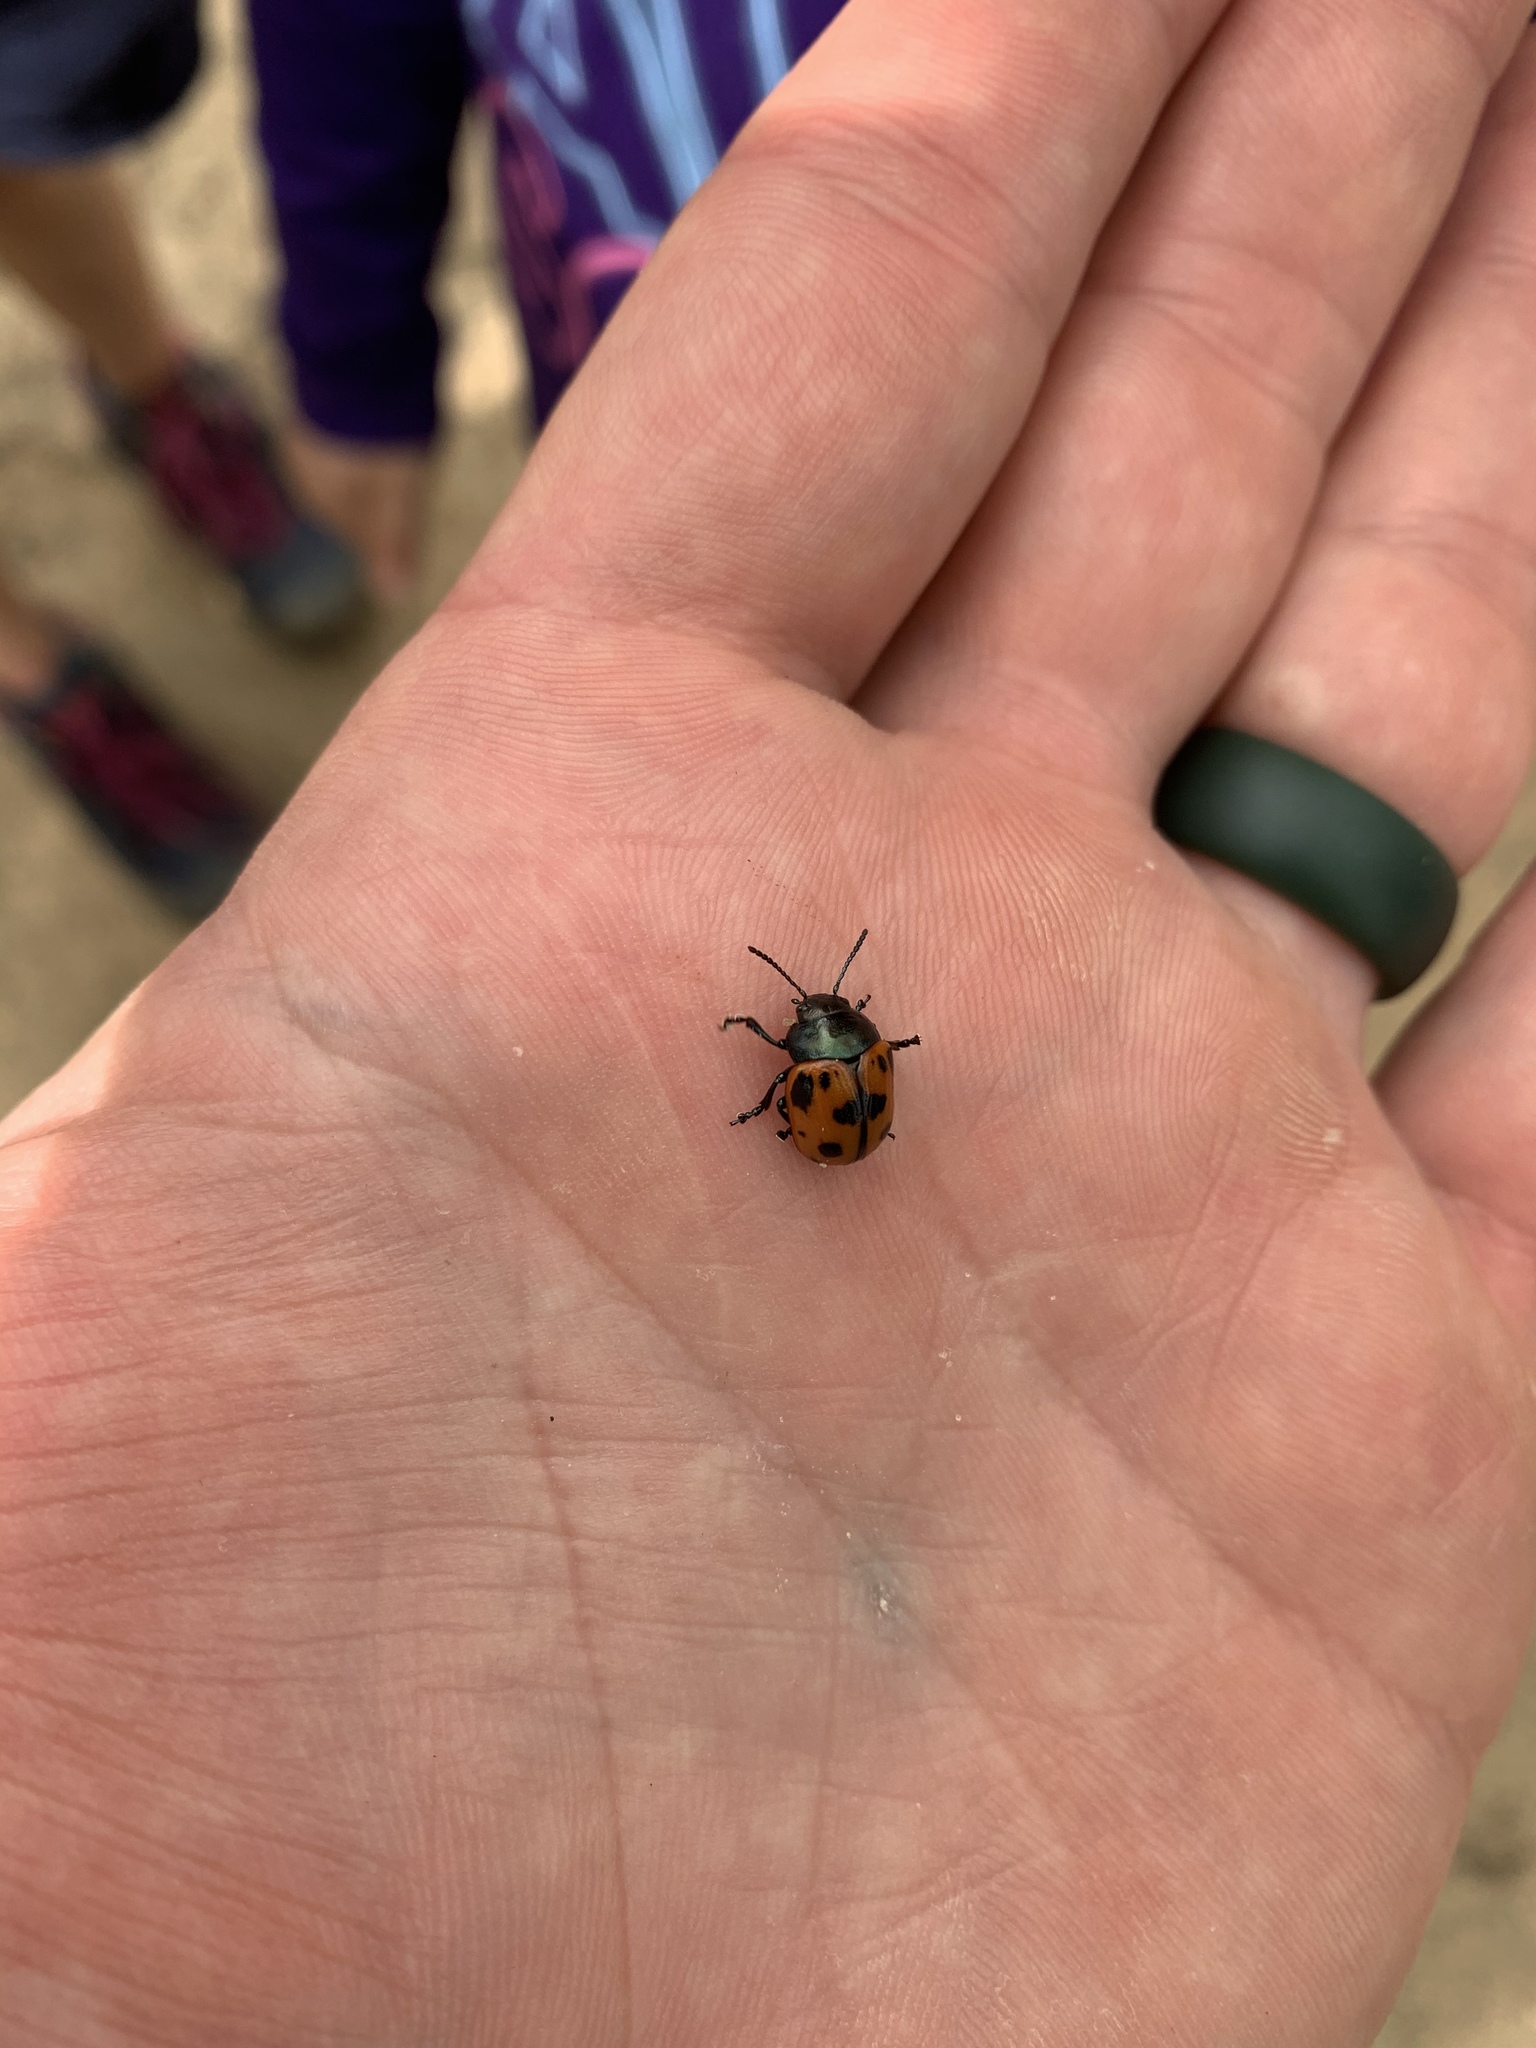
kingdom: Animalia
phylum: Arthropoda
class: Insecta
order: Coleoptera
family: Chrysomelidae
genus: Labidomera
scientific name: Labidomera clivicollis
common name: Swamp milkweed leaf beetle
